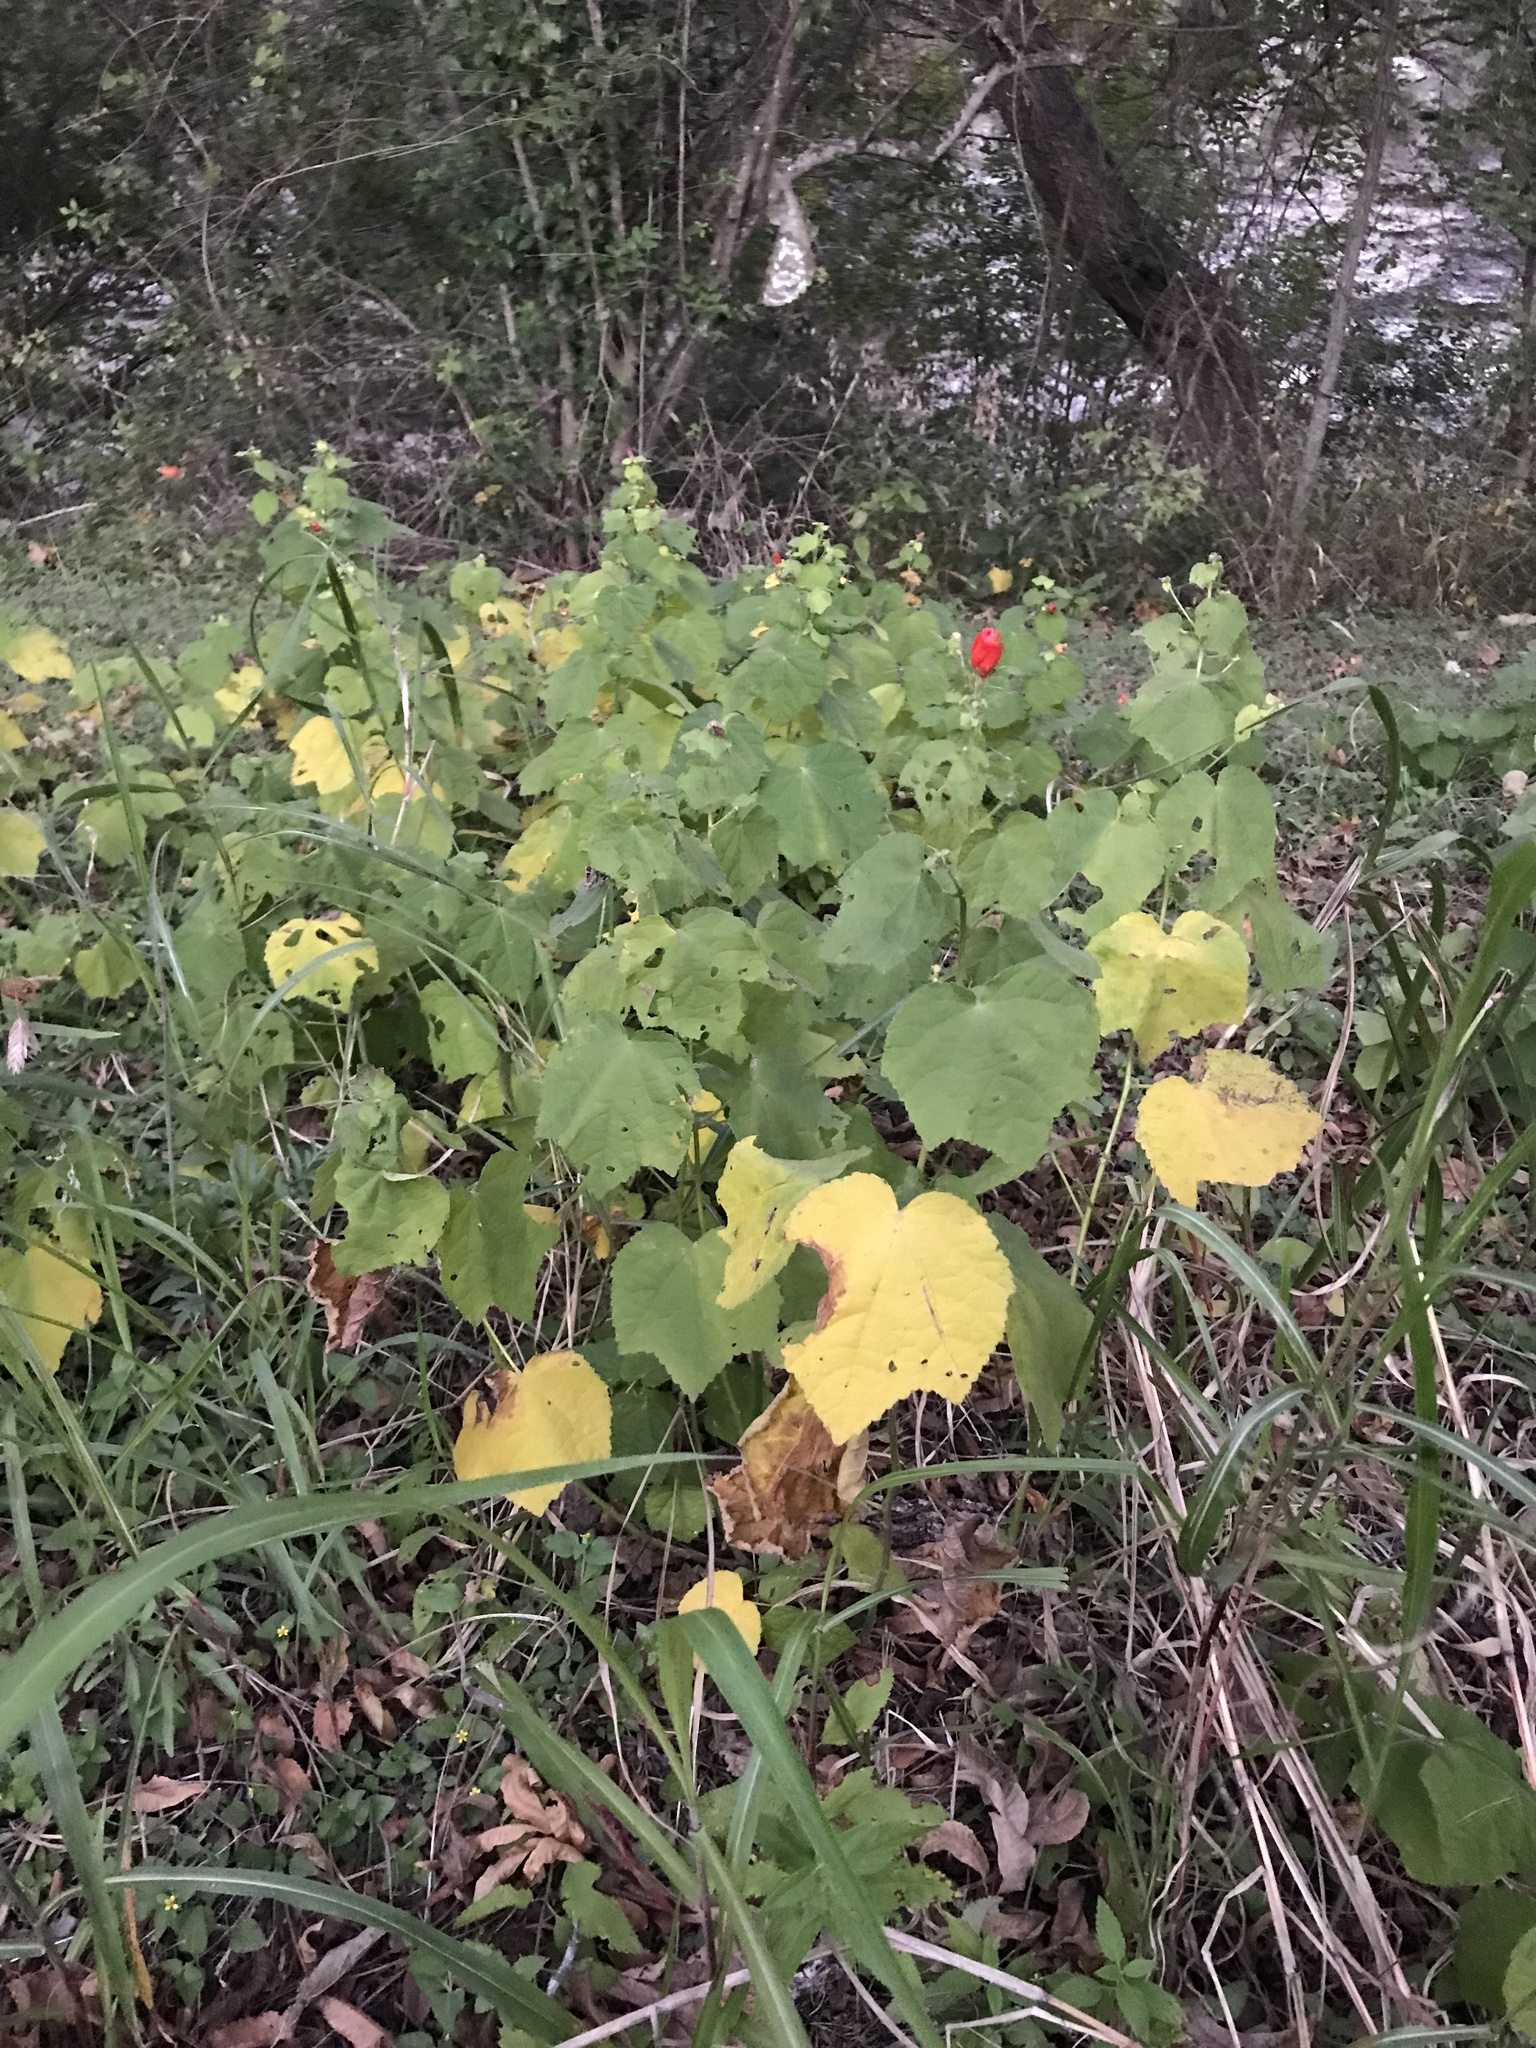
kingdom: Plantae
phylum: Tracheophyta
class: Magnoliopsida
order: Malvales
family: Malvaceae
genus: Malvaviscus
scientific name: Malvaviscus arboreus
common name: Wax mallow
